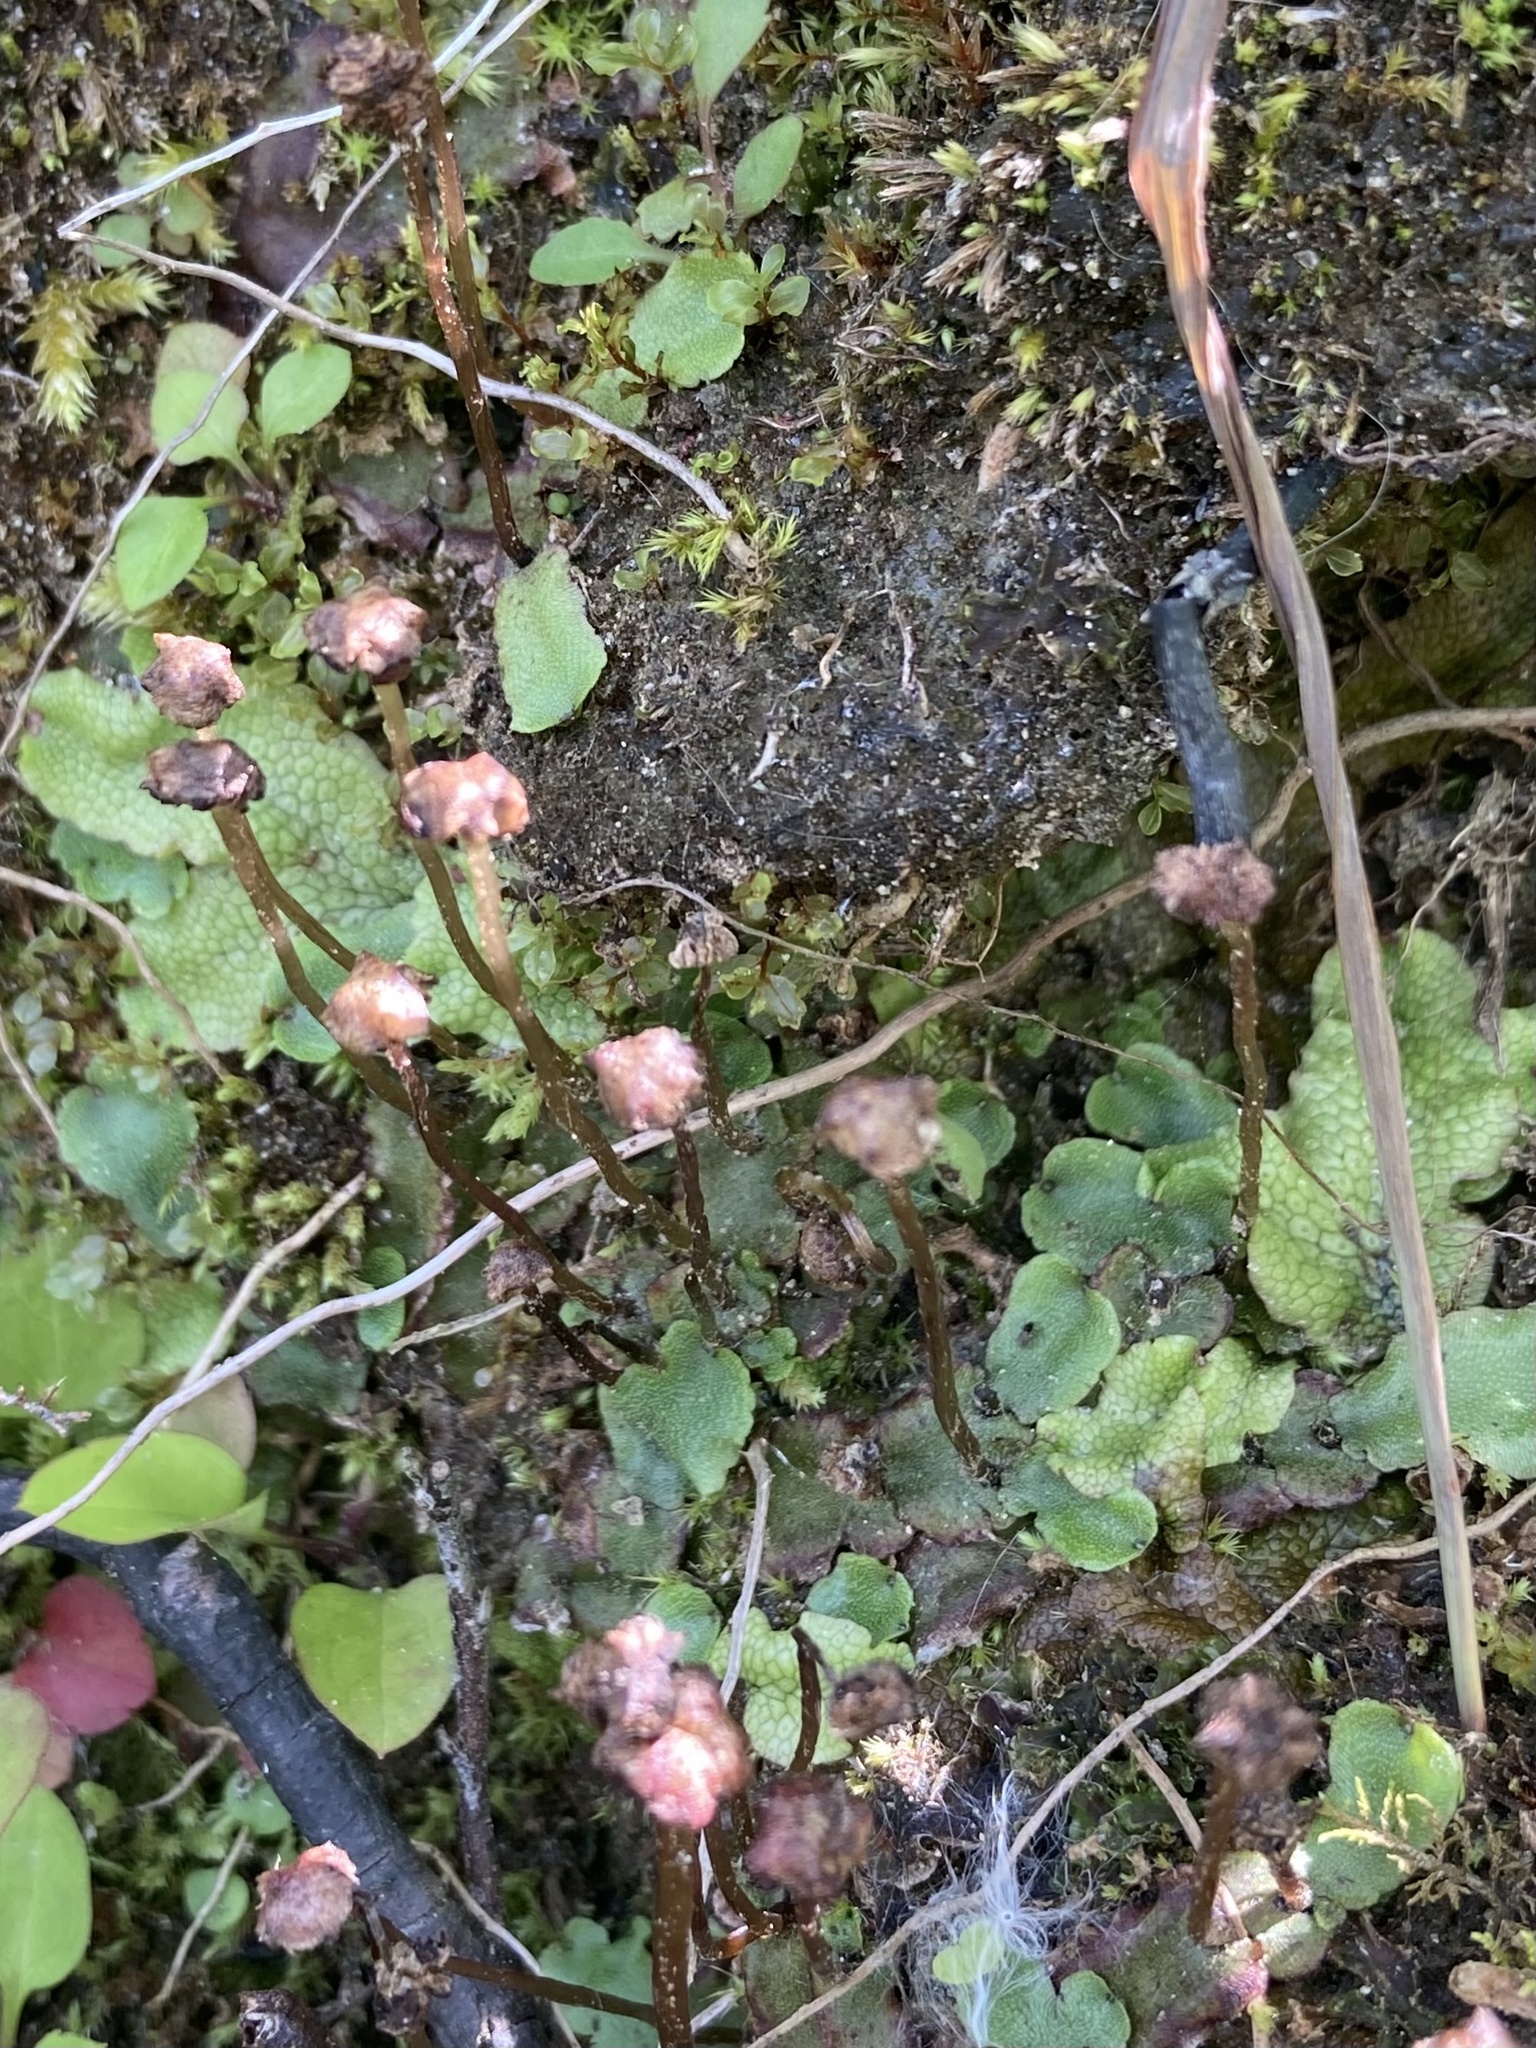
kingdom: Plantae
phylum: Marchantiophyta
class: Marchantiopsida
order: Marchantiales
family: Marchantiaceae
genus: Marchantia
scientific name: Marchantia quadrata
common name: Narrow mushroom-headed liverwort
